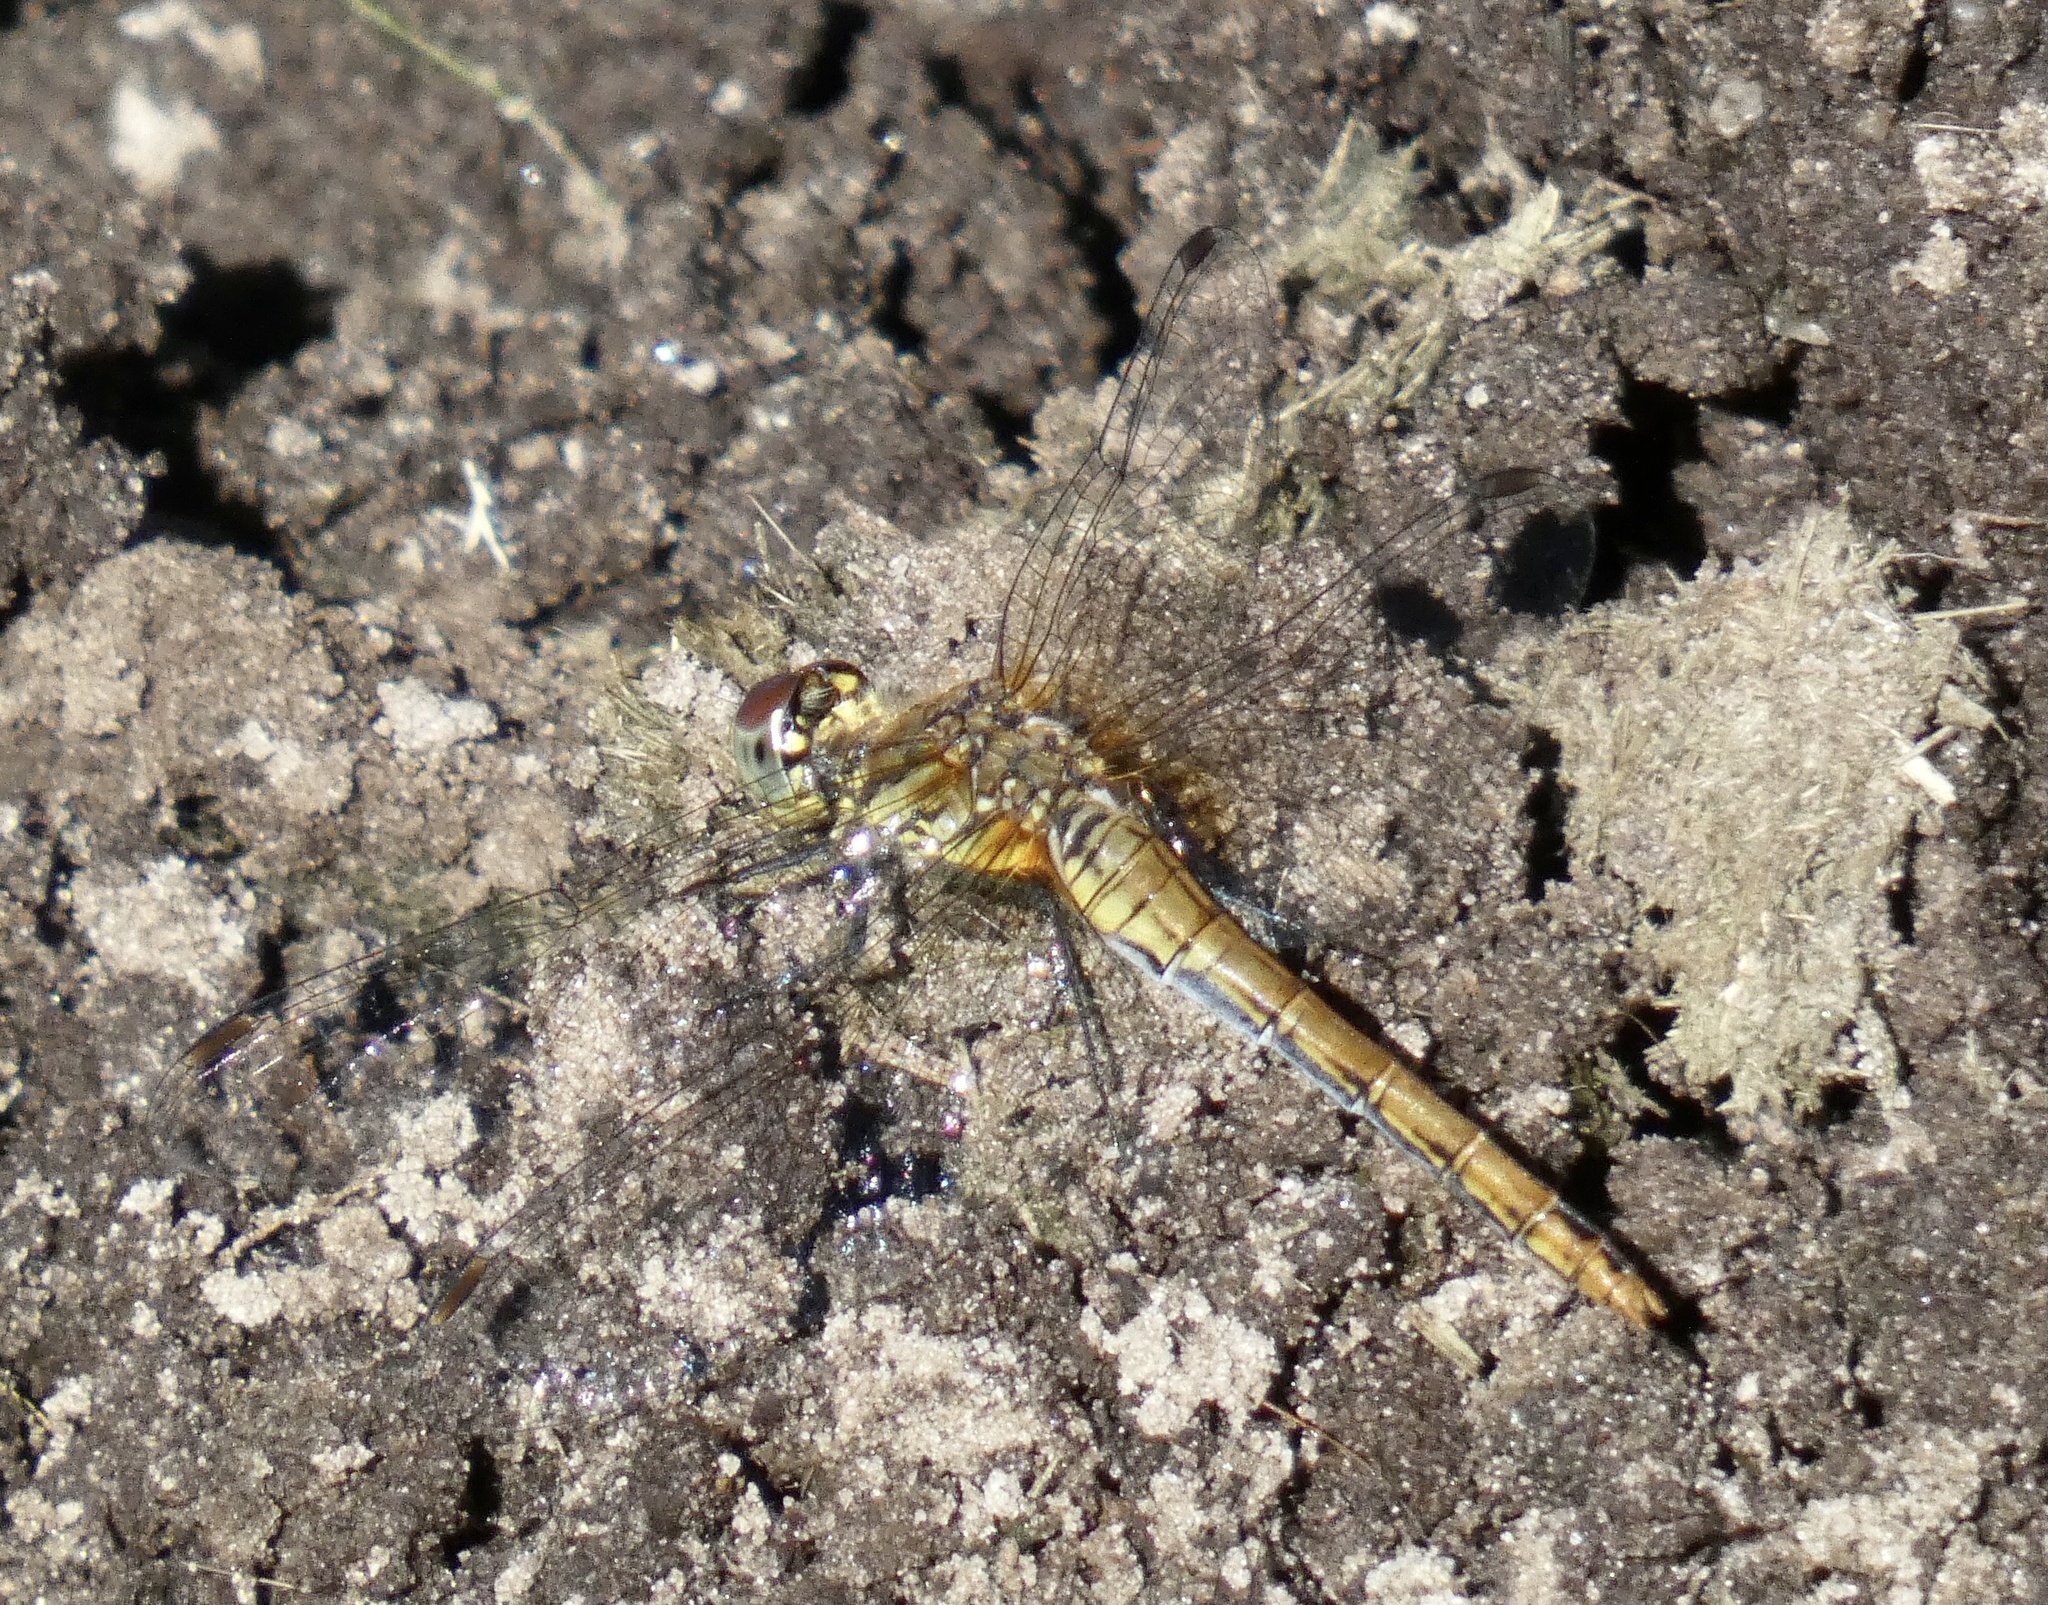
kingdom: Animalia
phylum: Arthropoda
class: Insecta
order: Odonata
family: Libellulidae
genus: Sympetrum
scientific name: Sympetrum sanguineum
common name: Ruddy darter
